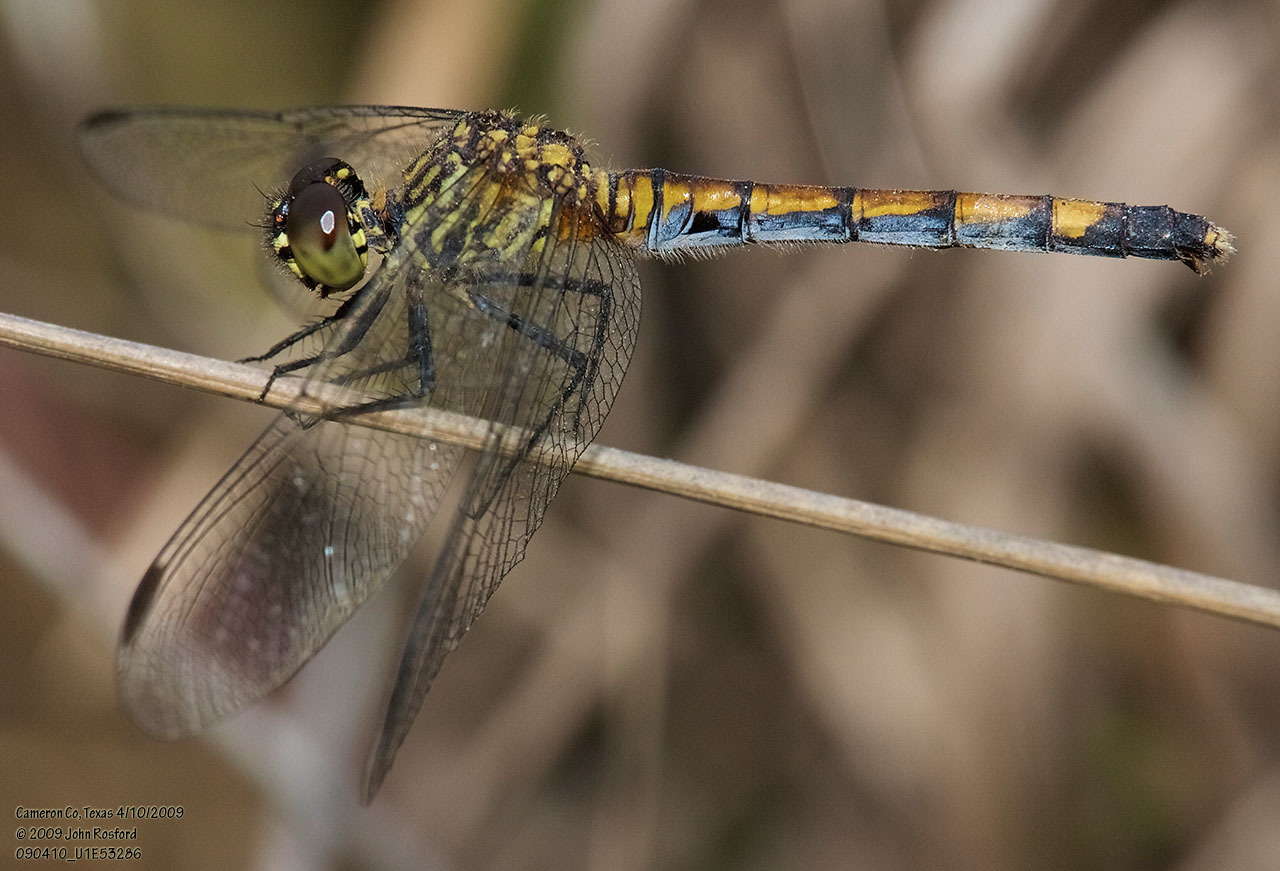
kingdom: Animalia
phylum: Arthropoda
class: Insecta
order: Odonata
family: Libellulidae
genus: Erythrodiplax
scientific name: Erythrodiplax berenice
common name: Seaside dragonlet
